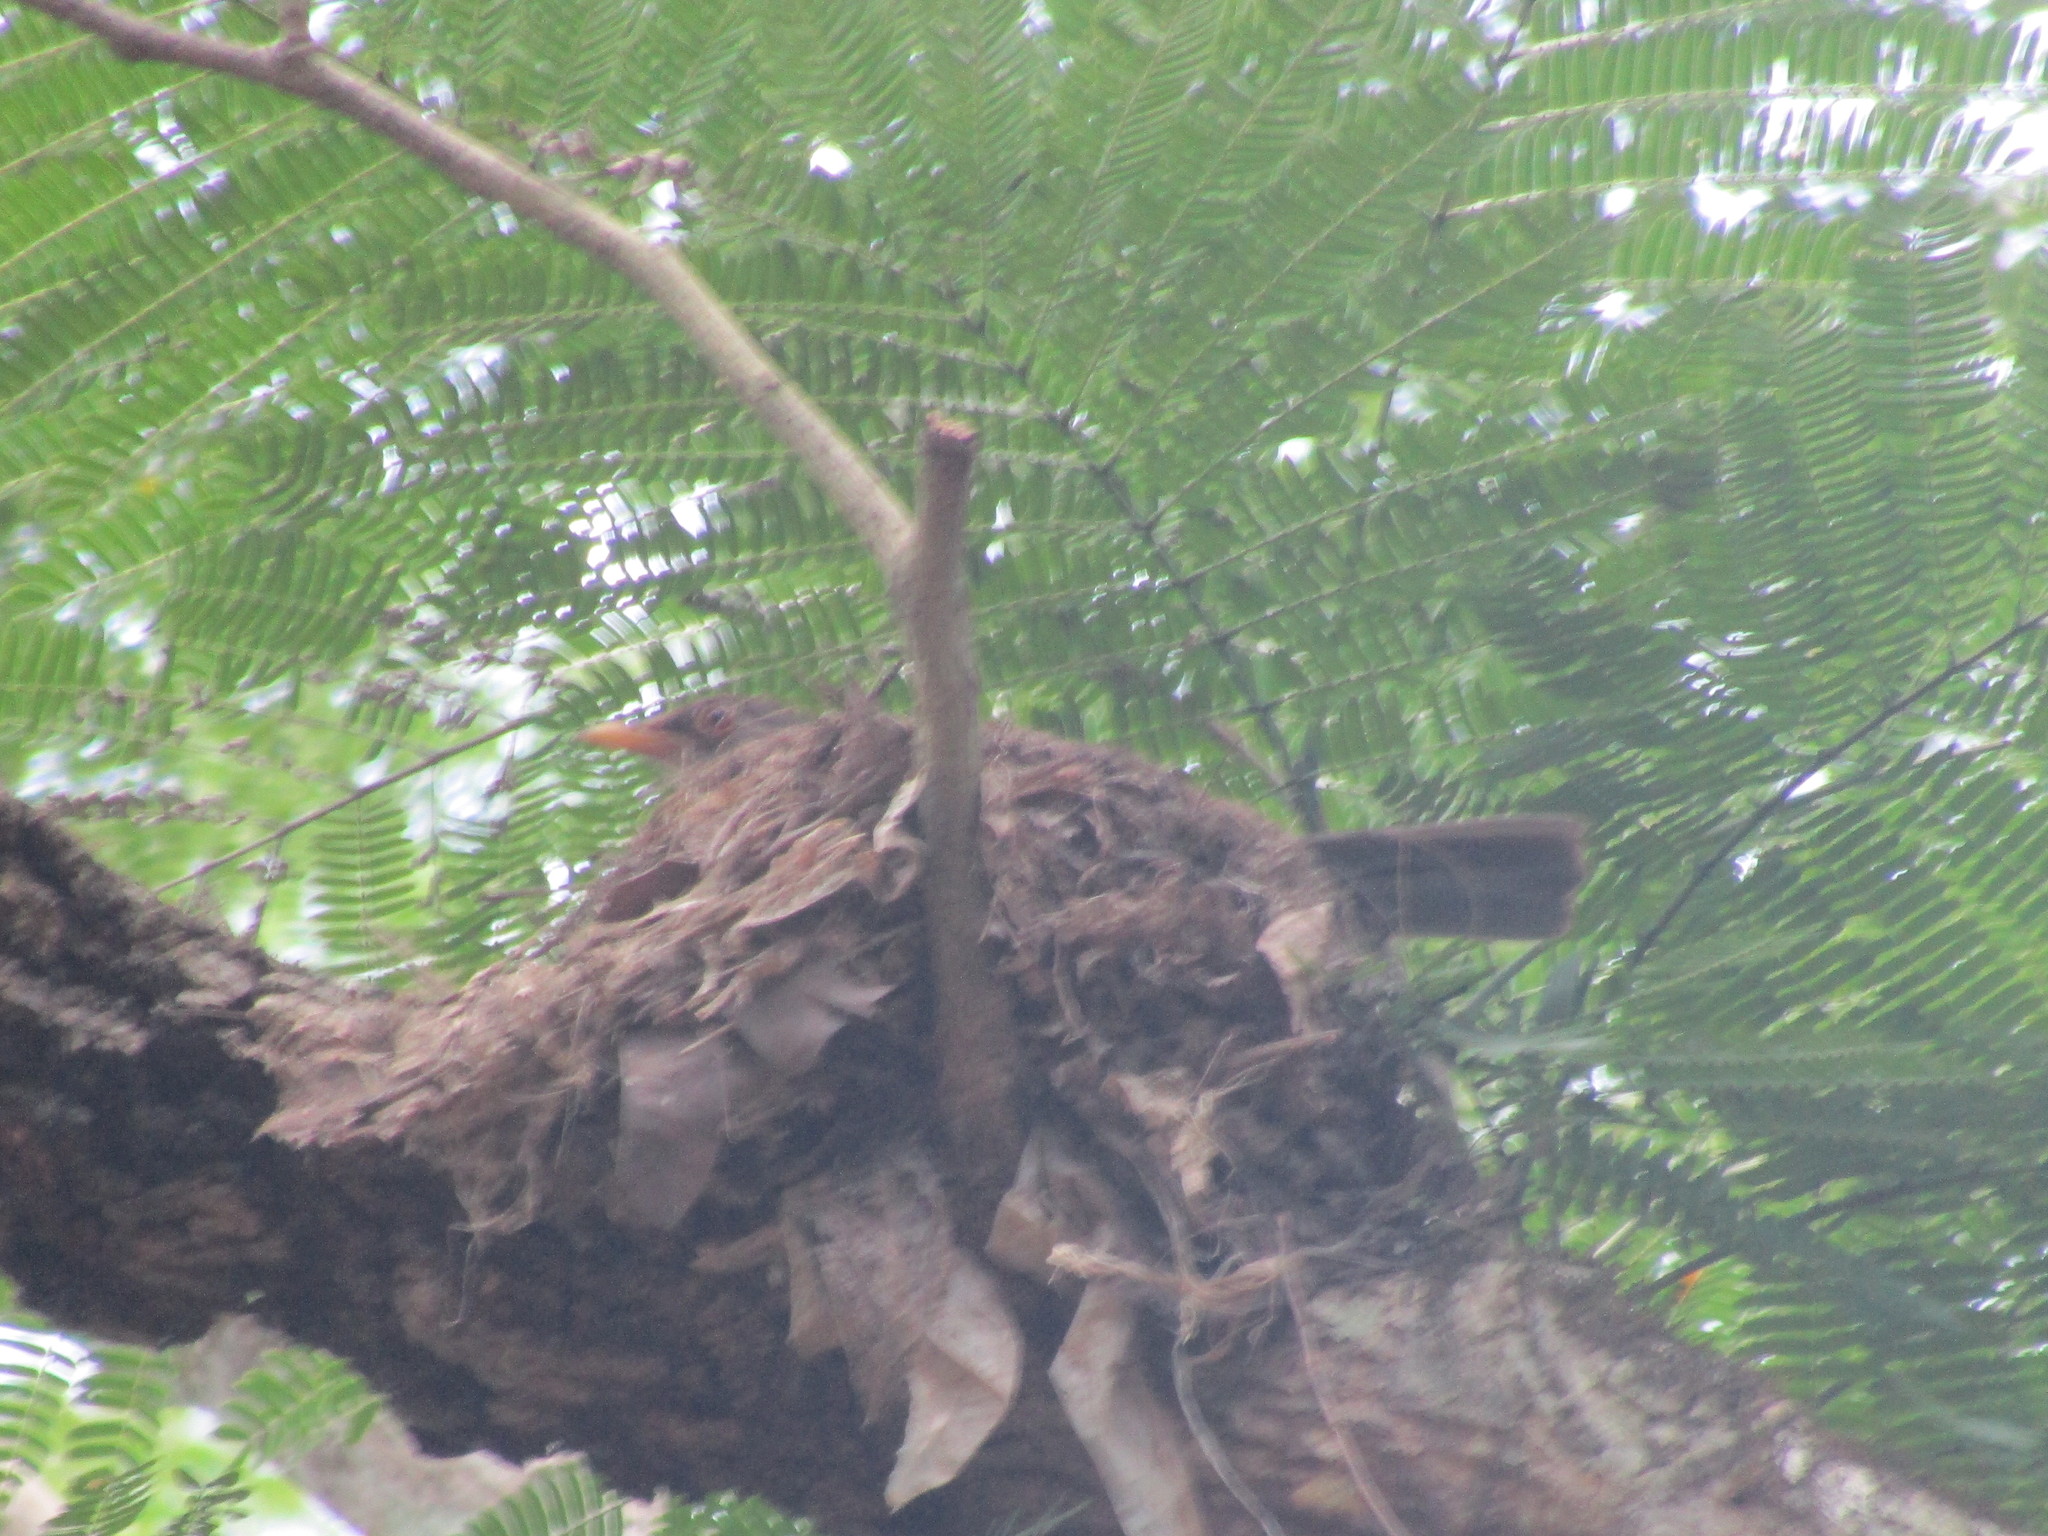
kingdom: Animalia
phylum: Chordata
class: Aves
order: Passeriformes
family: Turdidae
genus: Turdus
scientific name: Turdus rufopalliatus
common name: Rufous-backed robin
